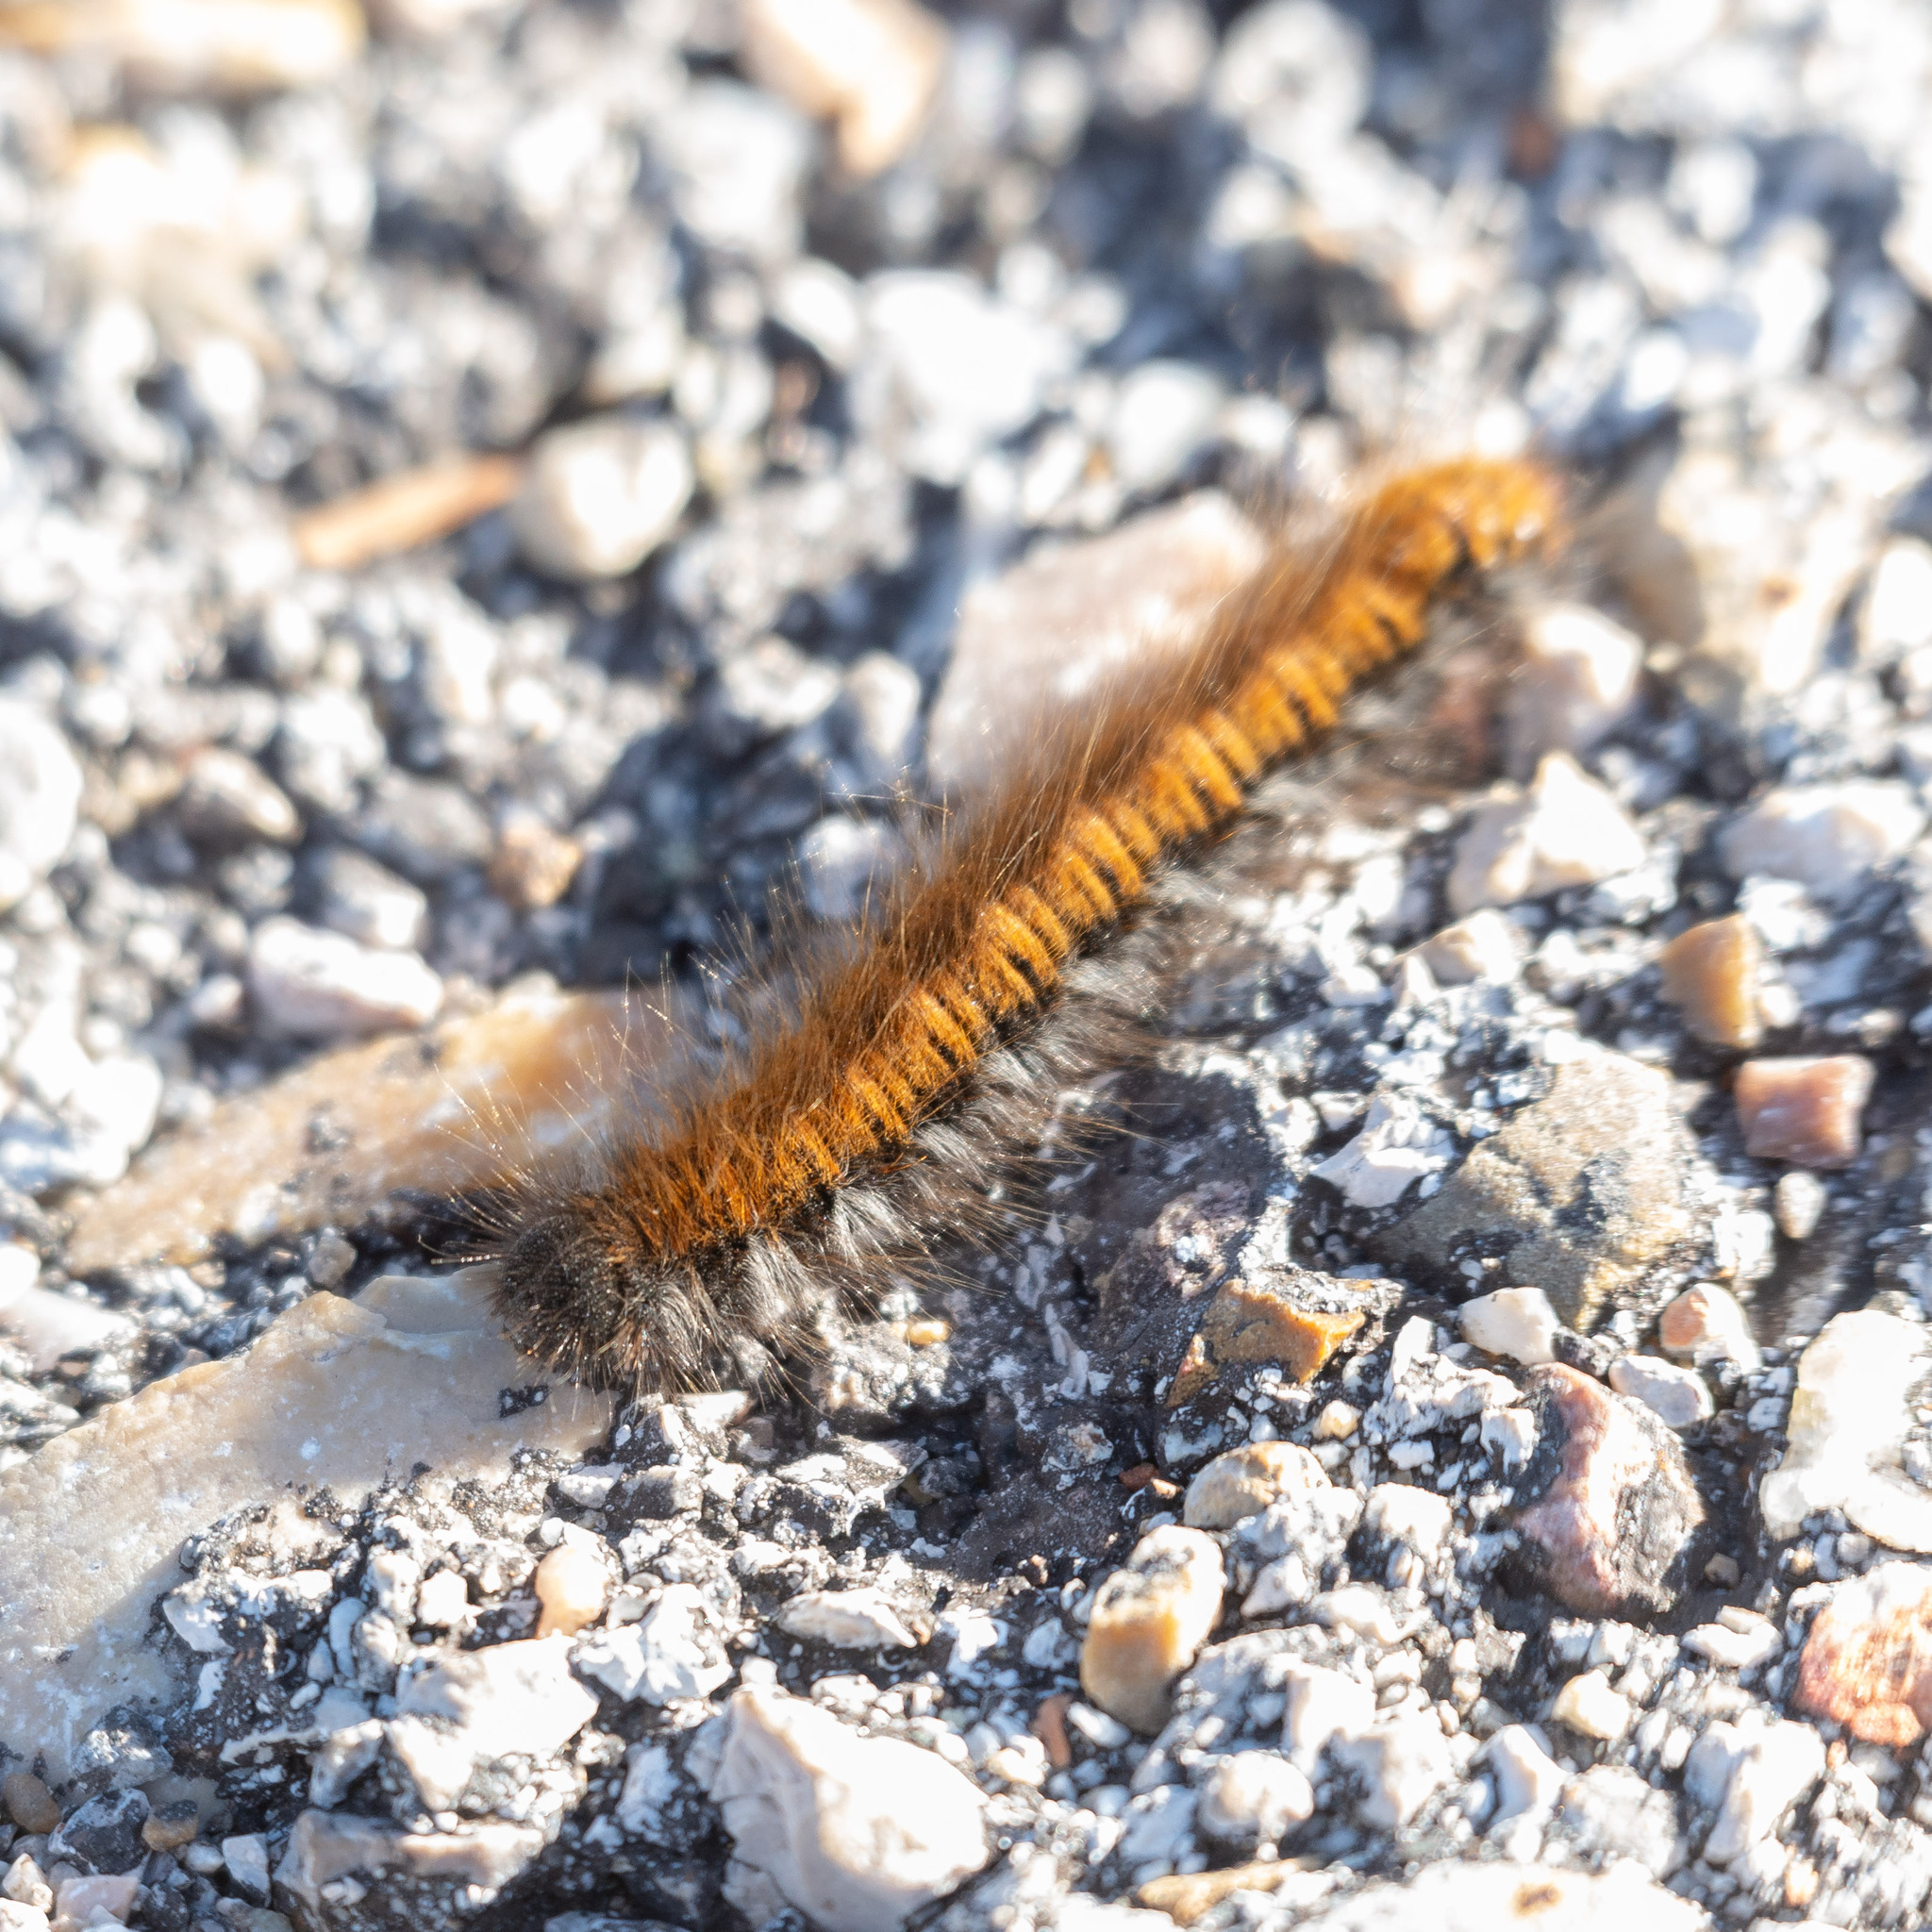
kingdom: Animalia
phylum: Arthropoda
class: Insecta
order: Lepidoptera
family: Lasiocampidae
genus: Macrothylacia
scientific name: Macrothylacia rubi
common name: Fox moth
